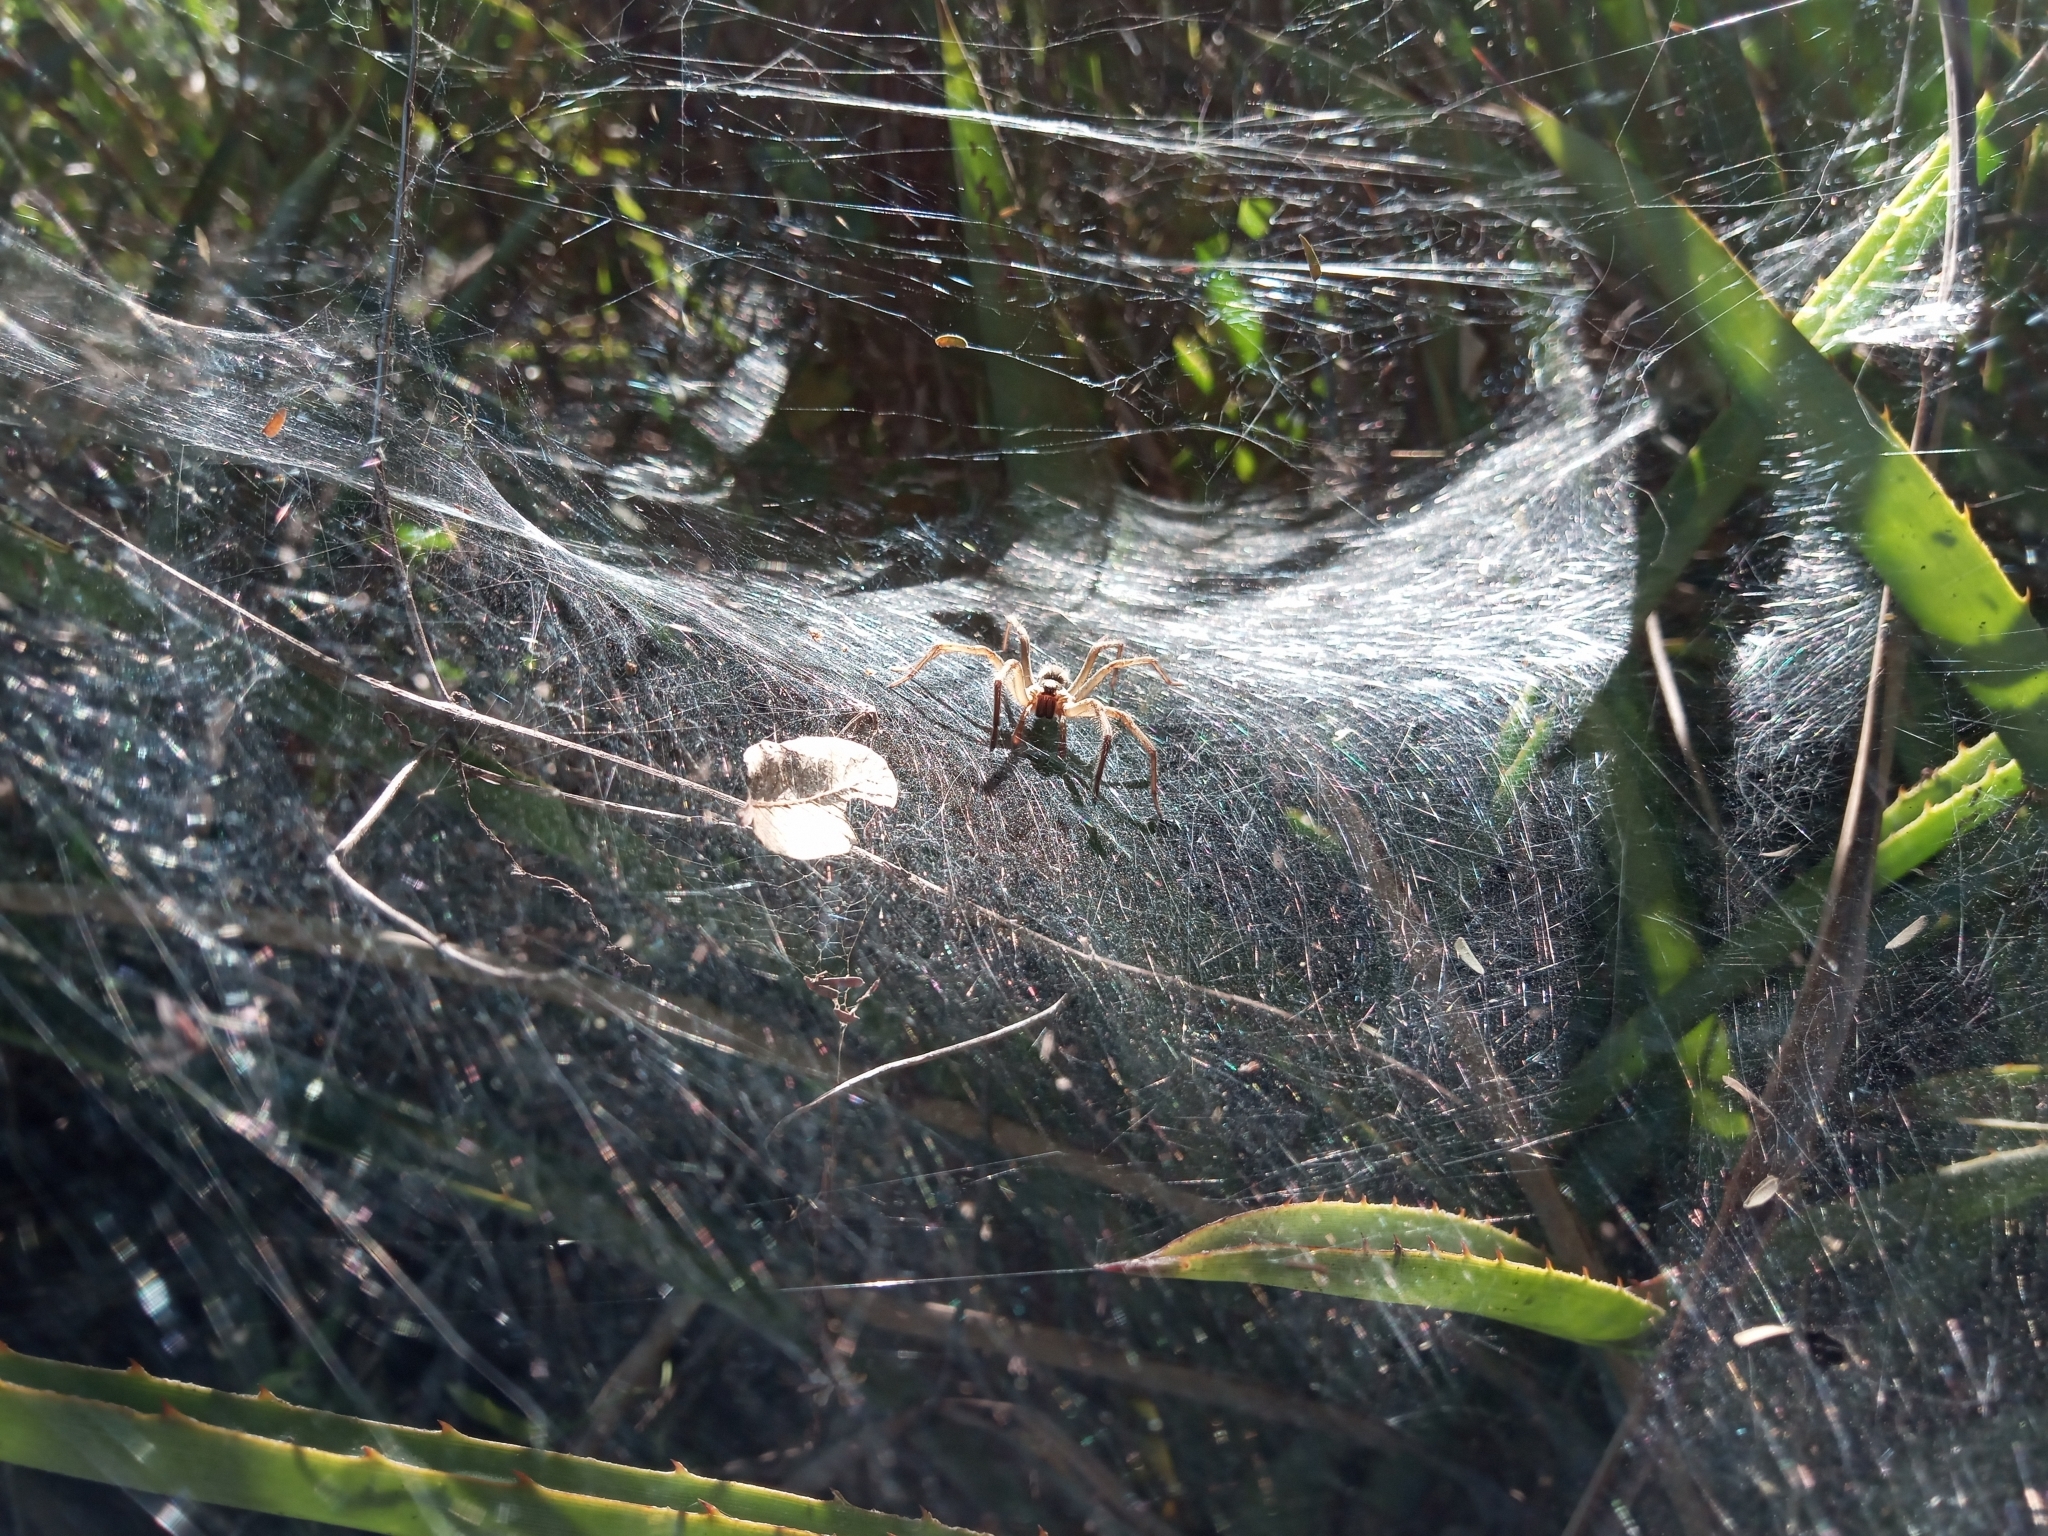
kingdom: Animalia
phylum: Arthropoda
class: Arachnida
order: Araneae
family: Lycosidae
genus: Aglaoctenus
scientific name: Aglaoctenus lagotis
